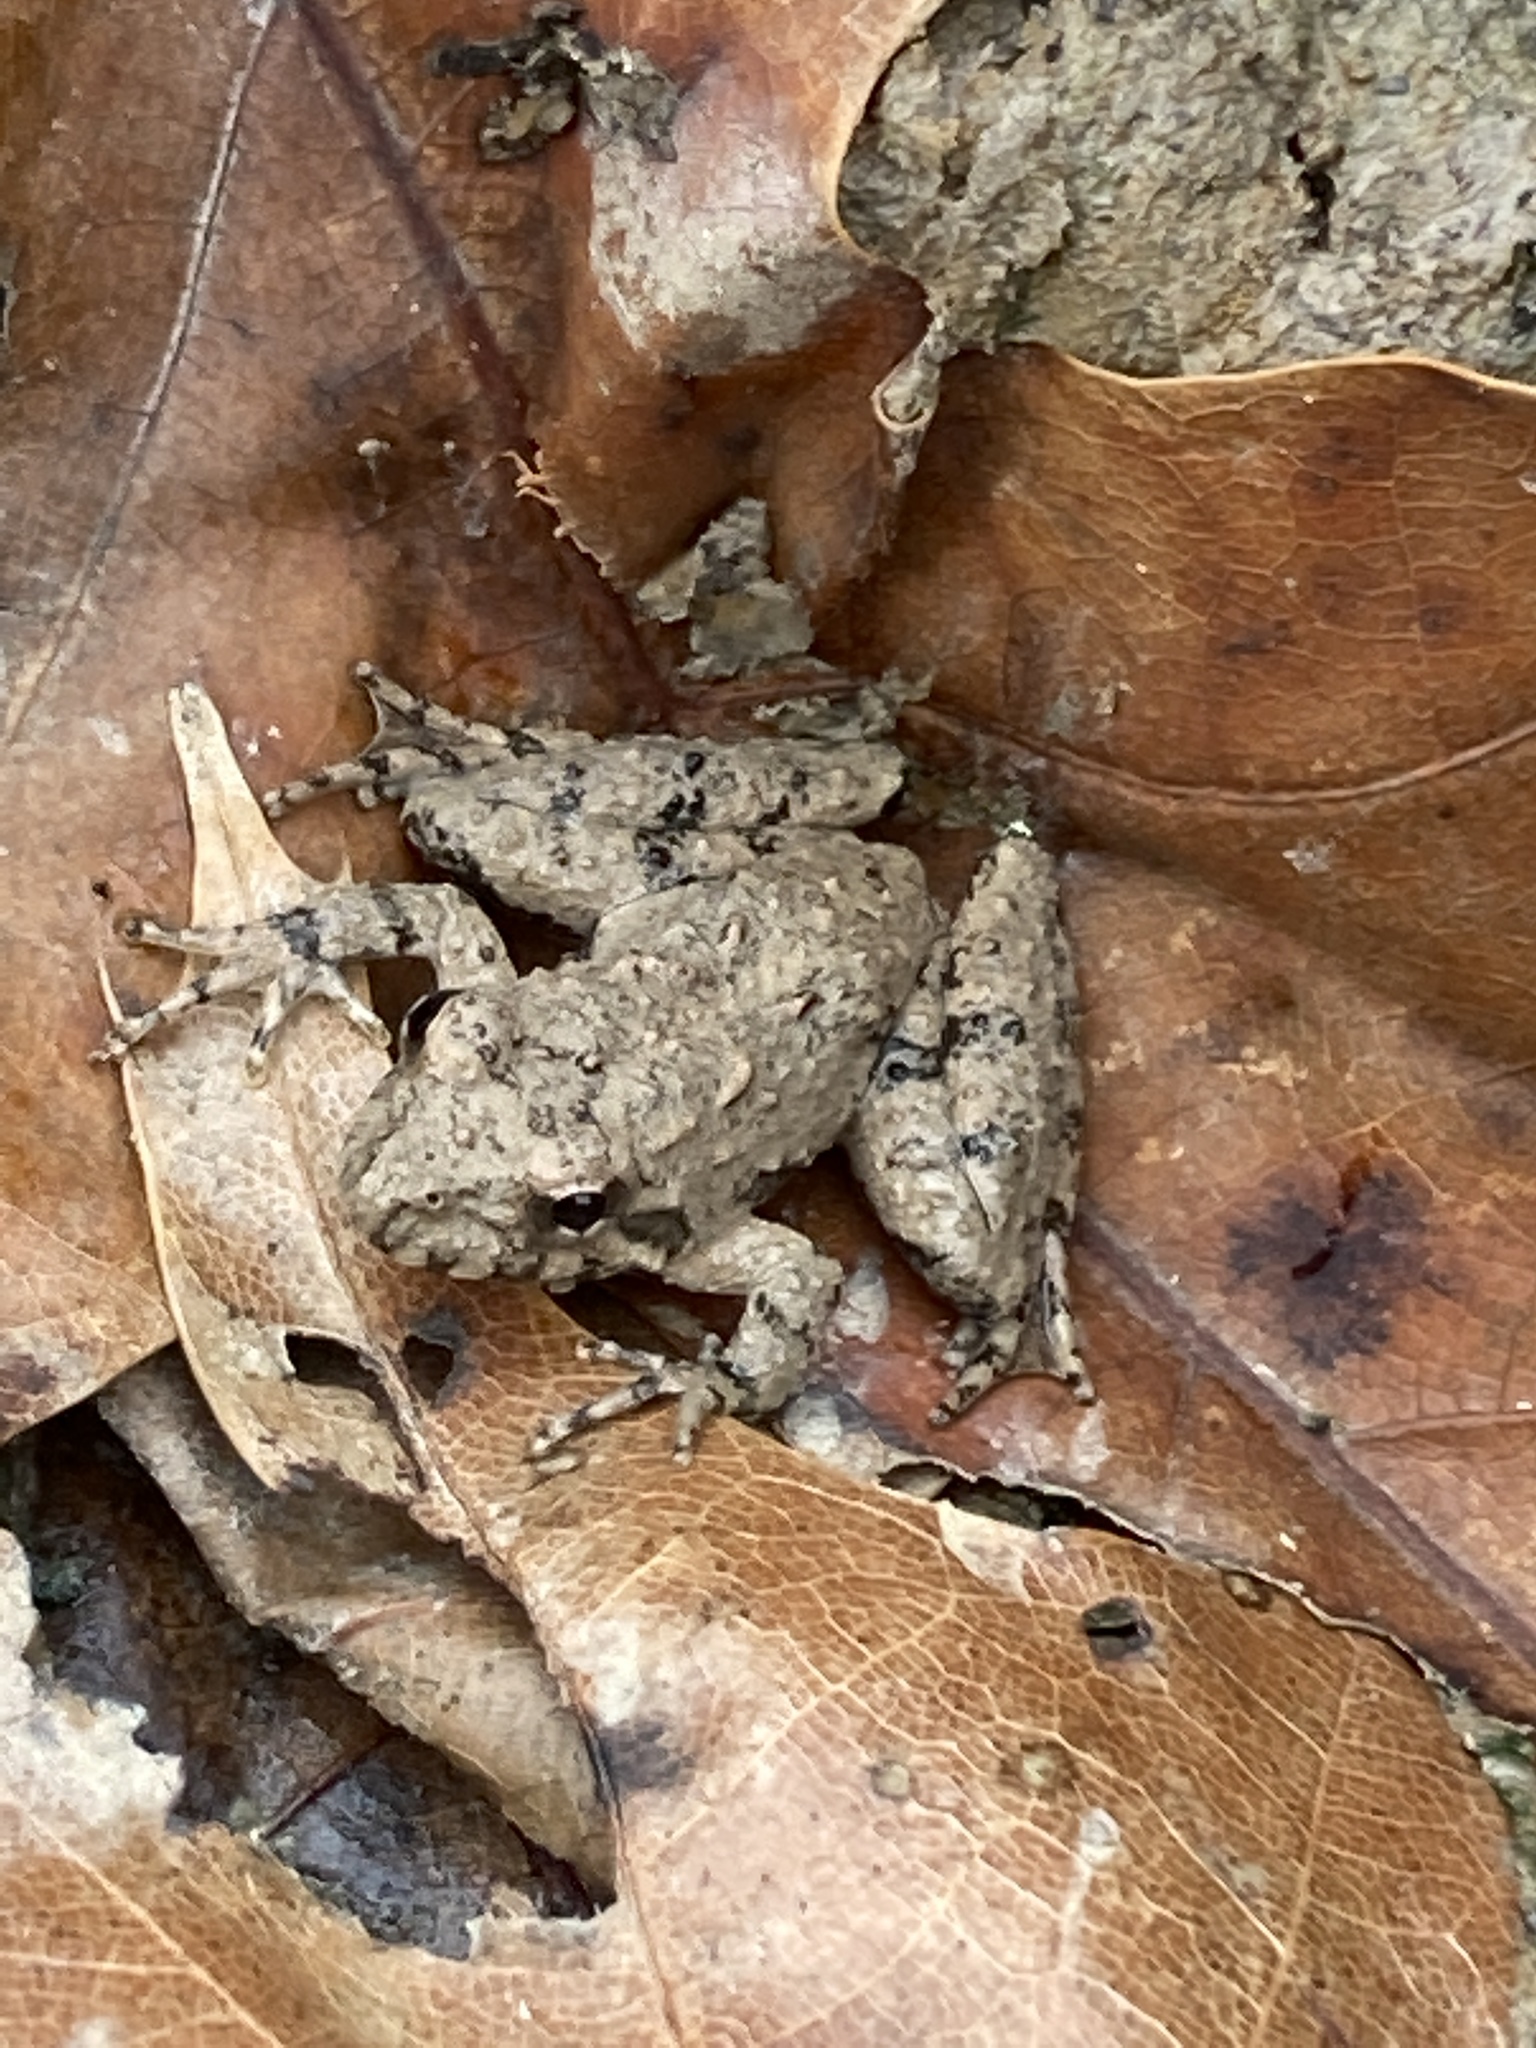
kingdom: Animalia
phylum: Chordata
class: Amphibia
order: Anura
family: Hylidae
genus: Acris
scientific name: Acris blanchardi
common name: Blanchard's cricket frog
